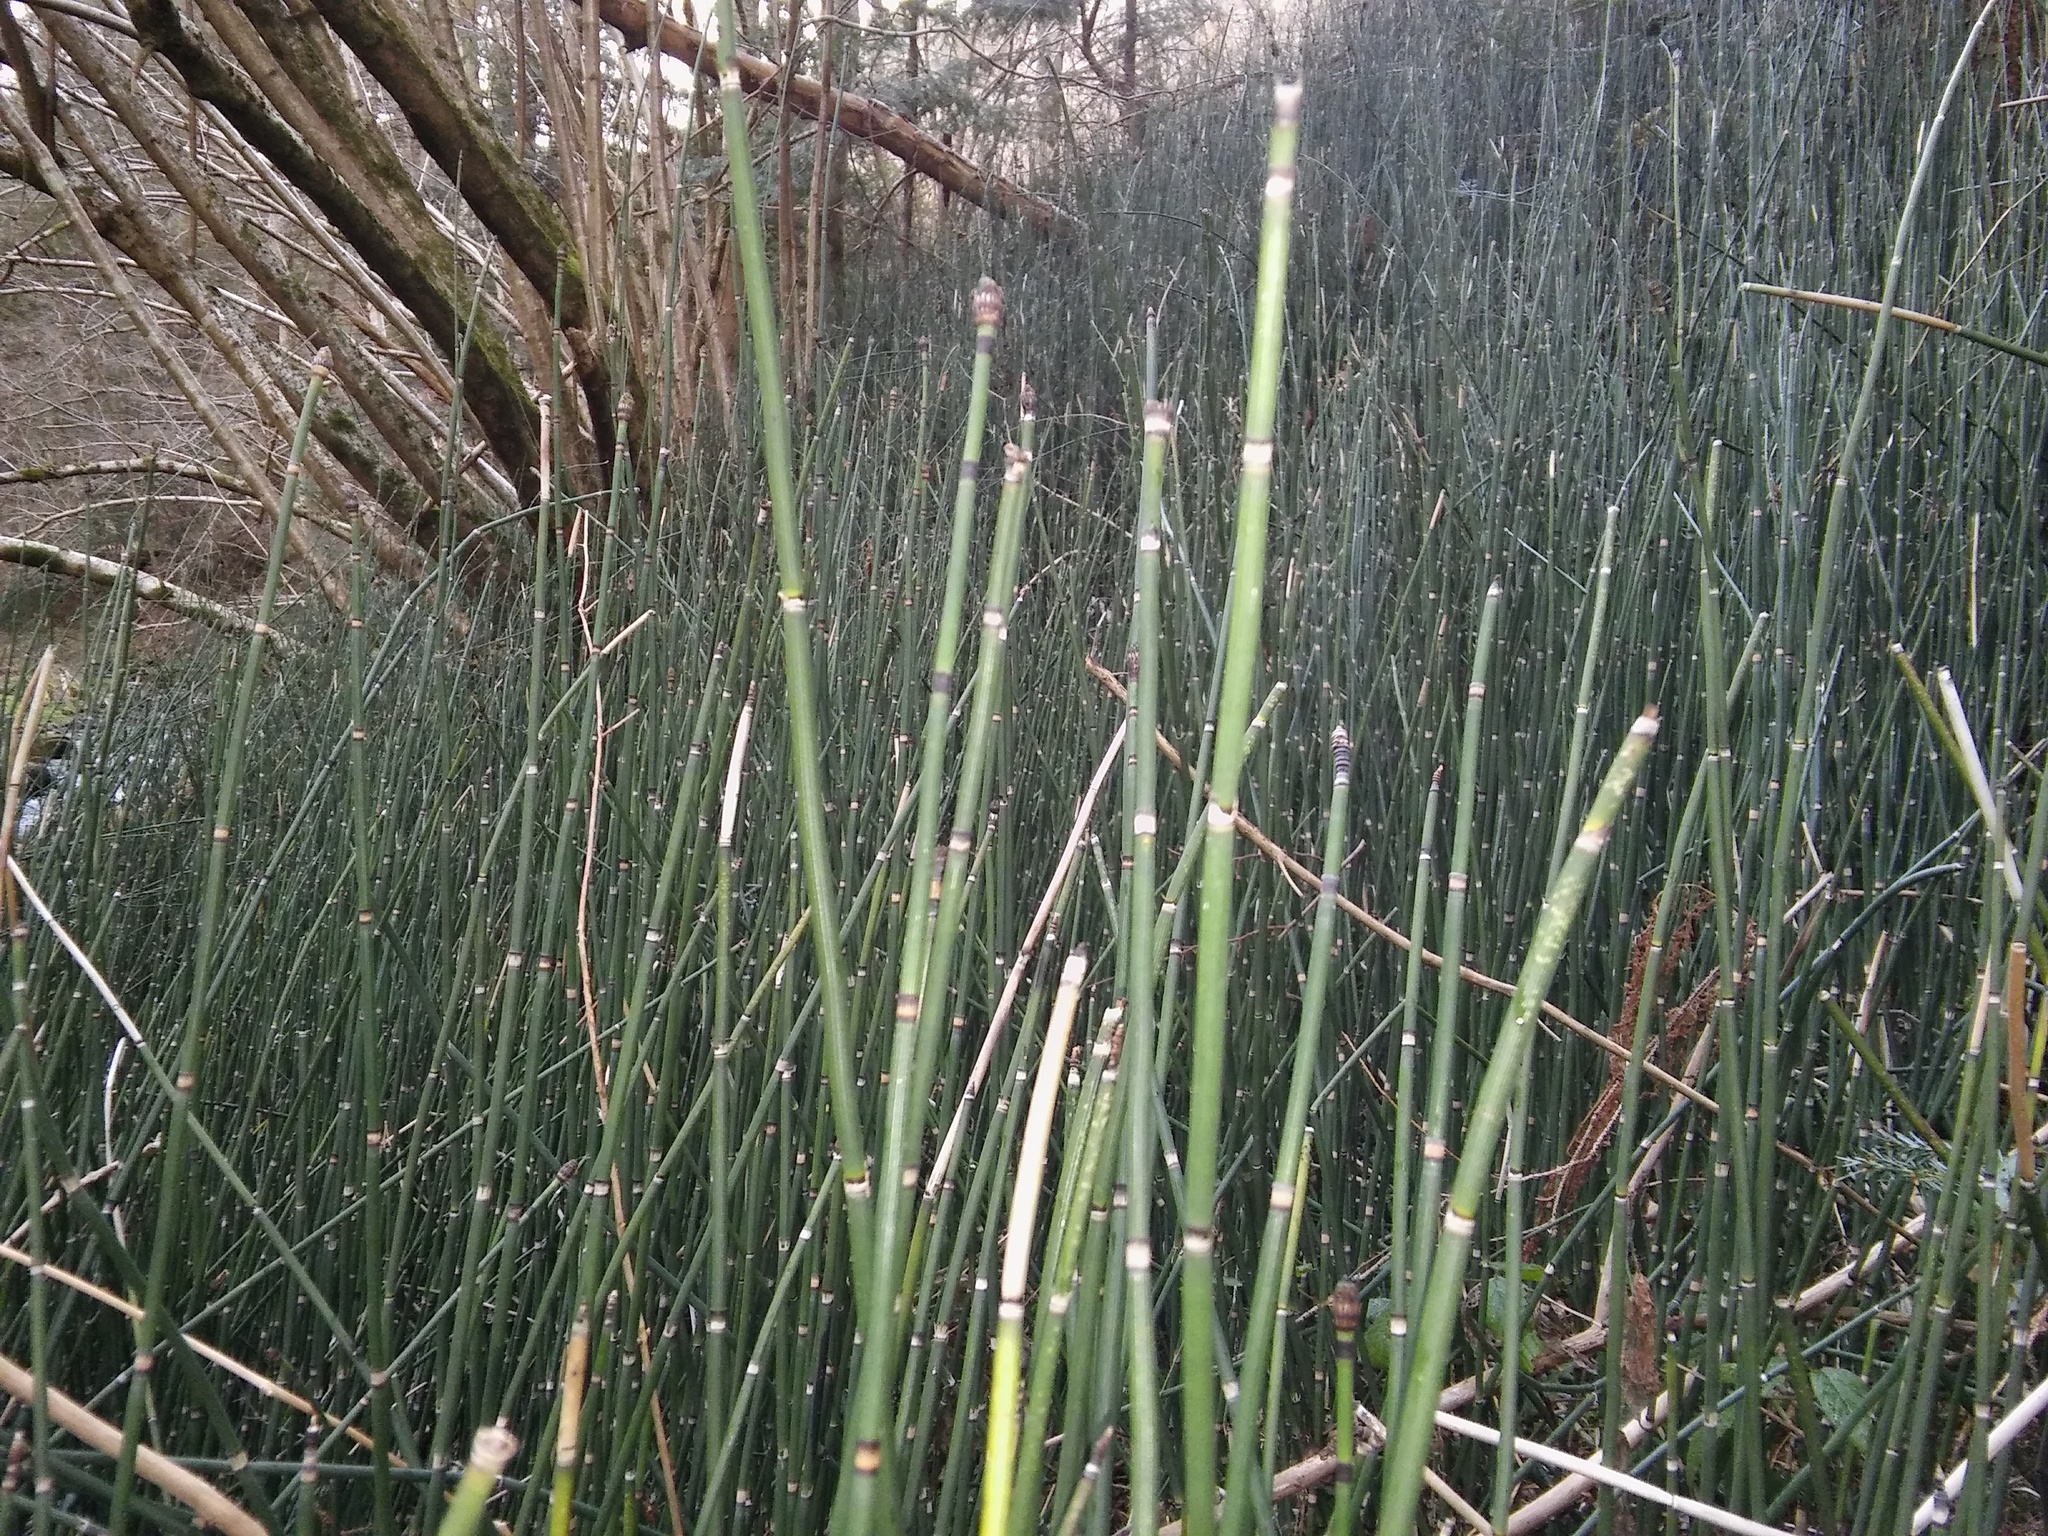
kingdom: Plantae
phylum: Tracheophyta
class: Polypodiopsida
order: Equisetales
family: Equisetaceae
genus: Equisetum
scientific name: Equisetum hyemale
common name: Rough horsetail
